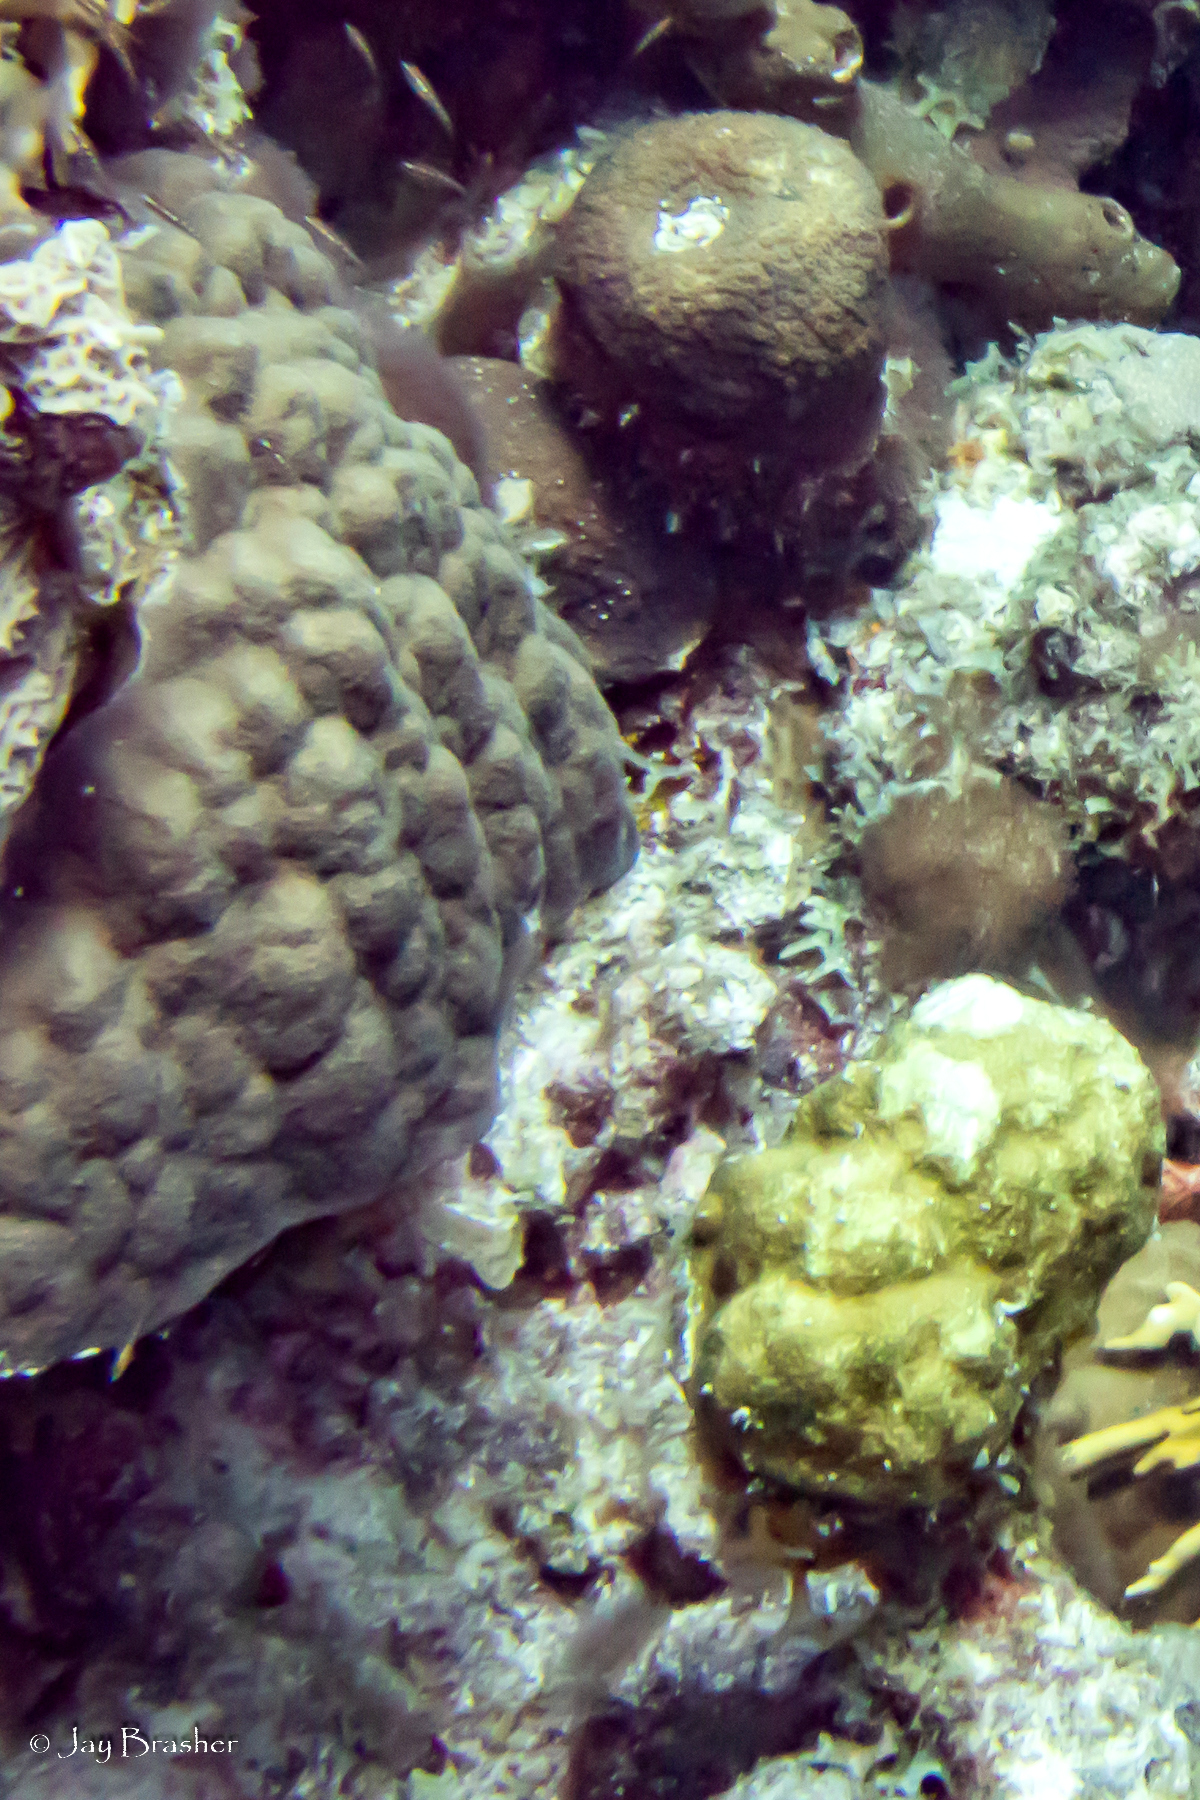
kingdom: Animalia
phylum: Cnidaria
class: Anthozoa
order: Scleractinia
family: Poritidae
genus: Porites
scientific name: Porites astreoides
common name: Mustard hill coral
